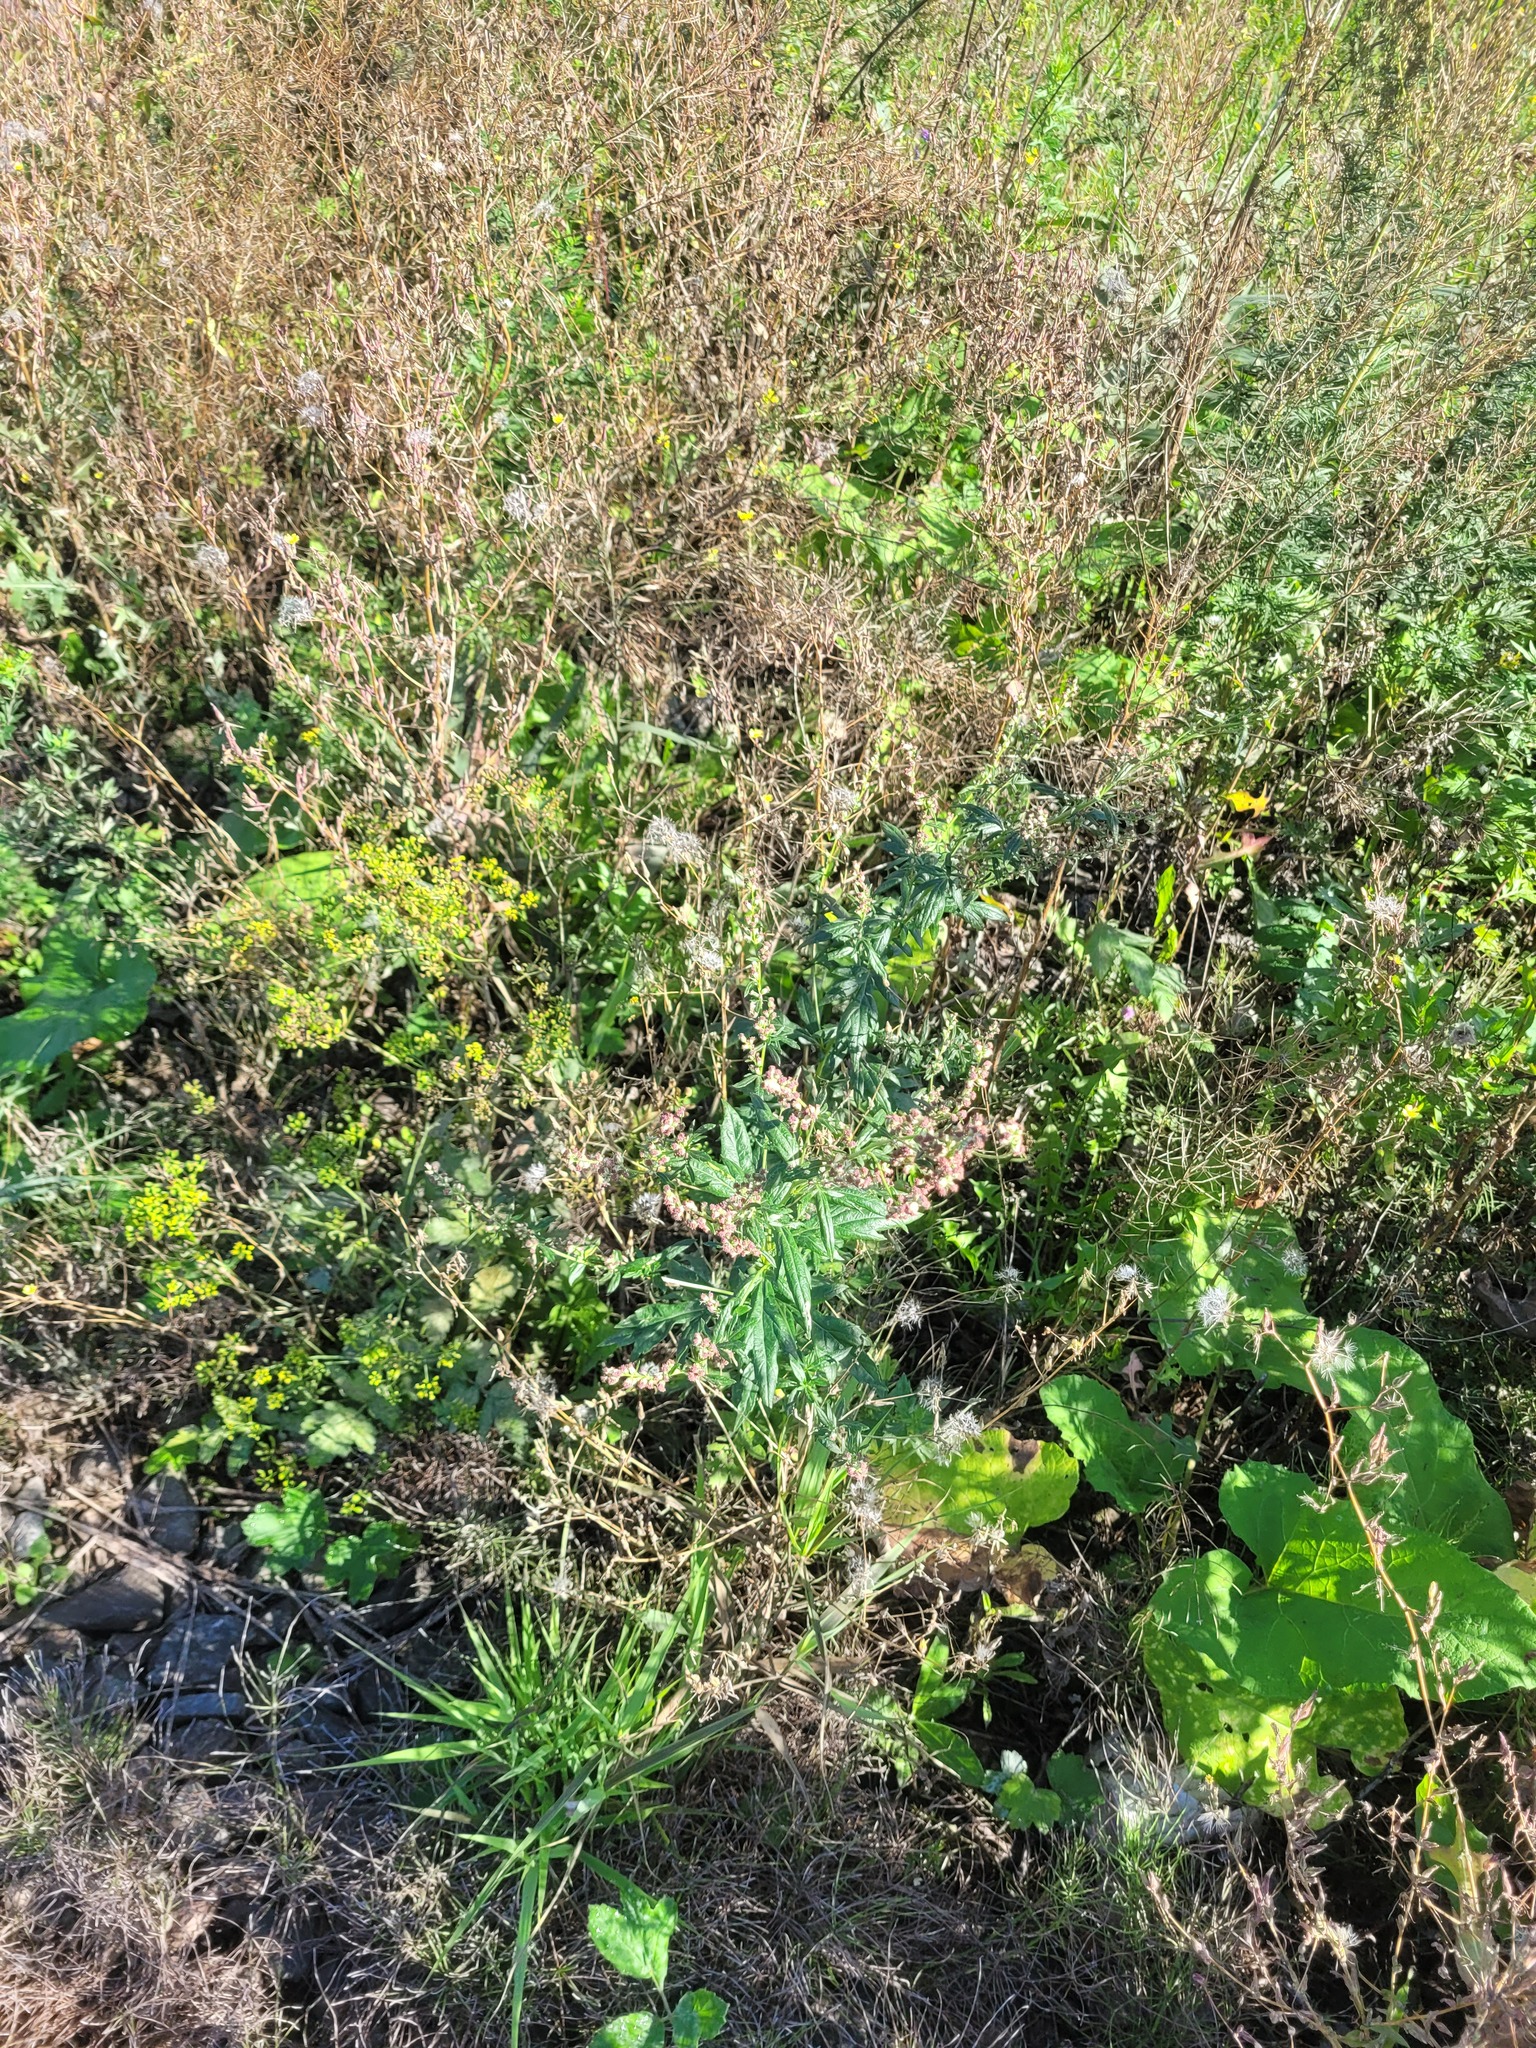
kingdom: Plantae
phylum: Tracheophyta
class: Magnoliopsida
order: Asterales
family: Asteraceae
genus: Artemisia
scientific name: Artemisia vulgaris
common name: Mugwort
